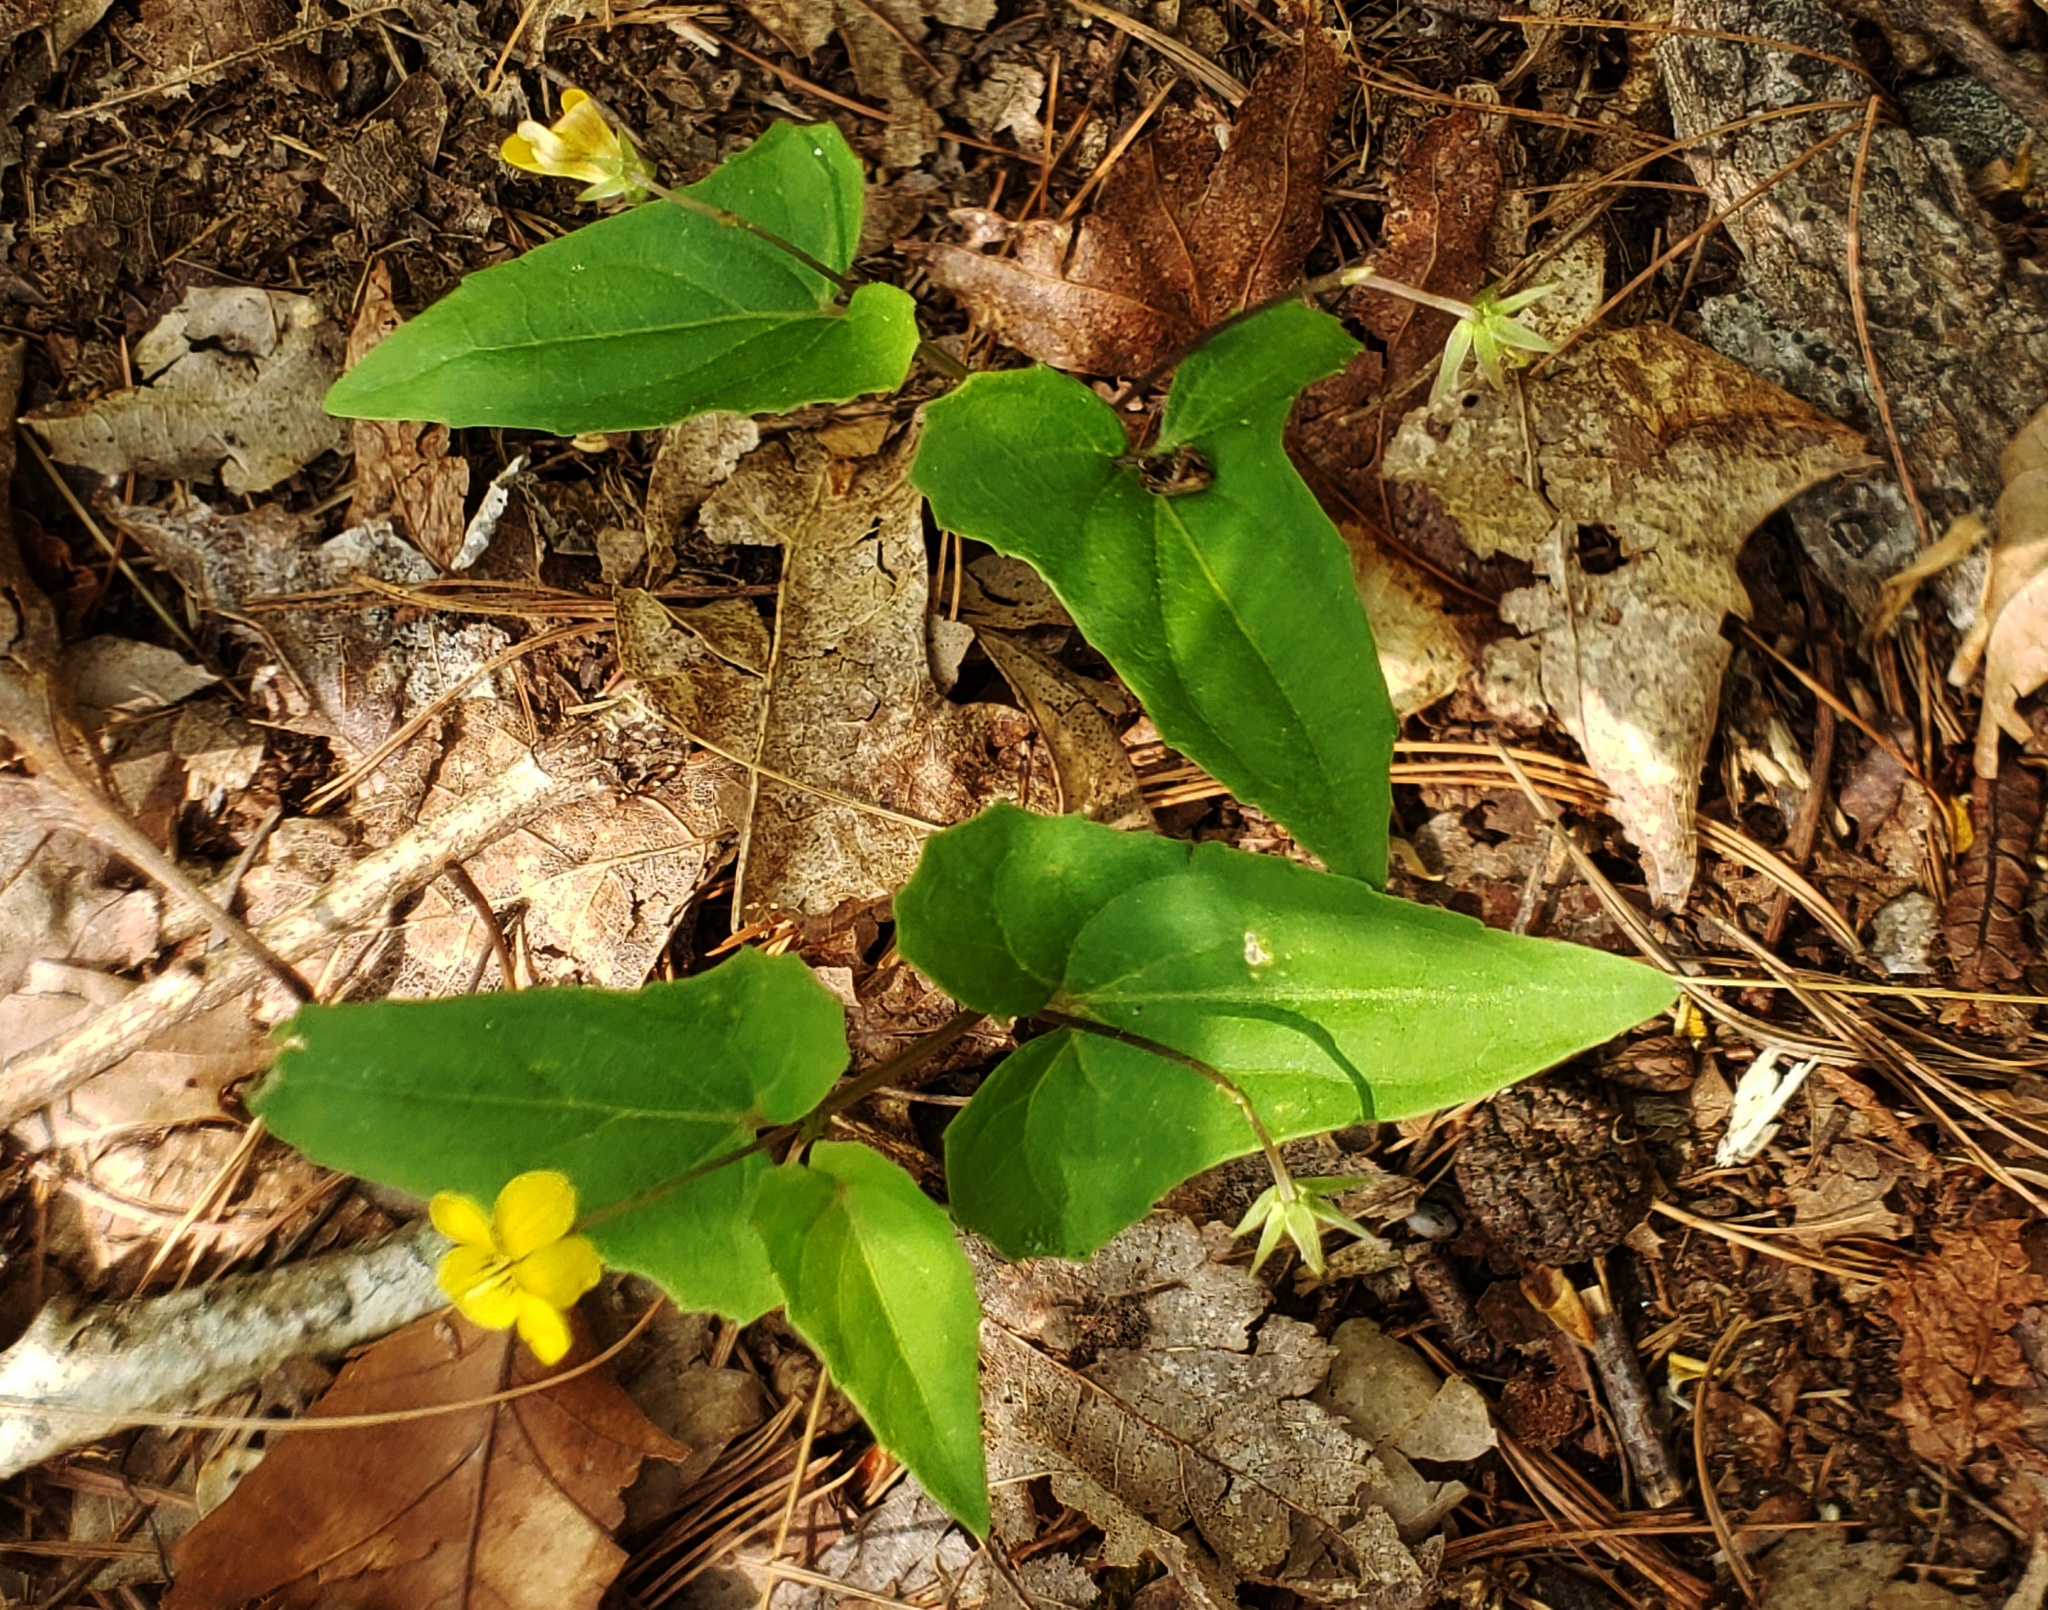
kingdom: Plantae
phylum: Tracheophyta
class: Magnoliopsida
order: Malpighiales
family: Violaceae
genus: Viola
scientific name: Viola hastata
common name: Spear-leaf violet
